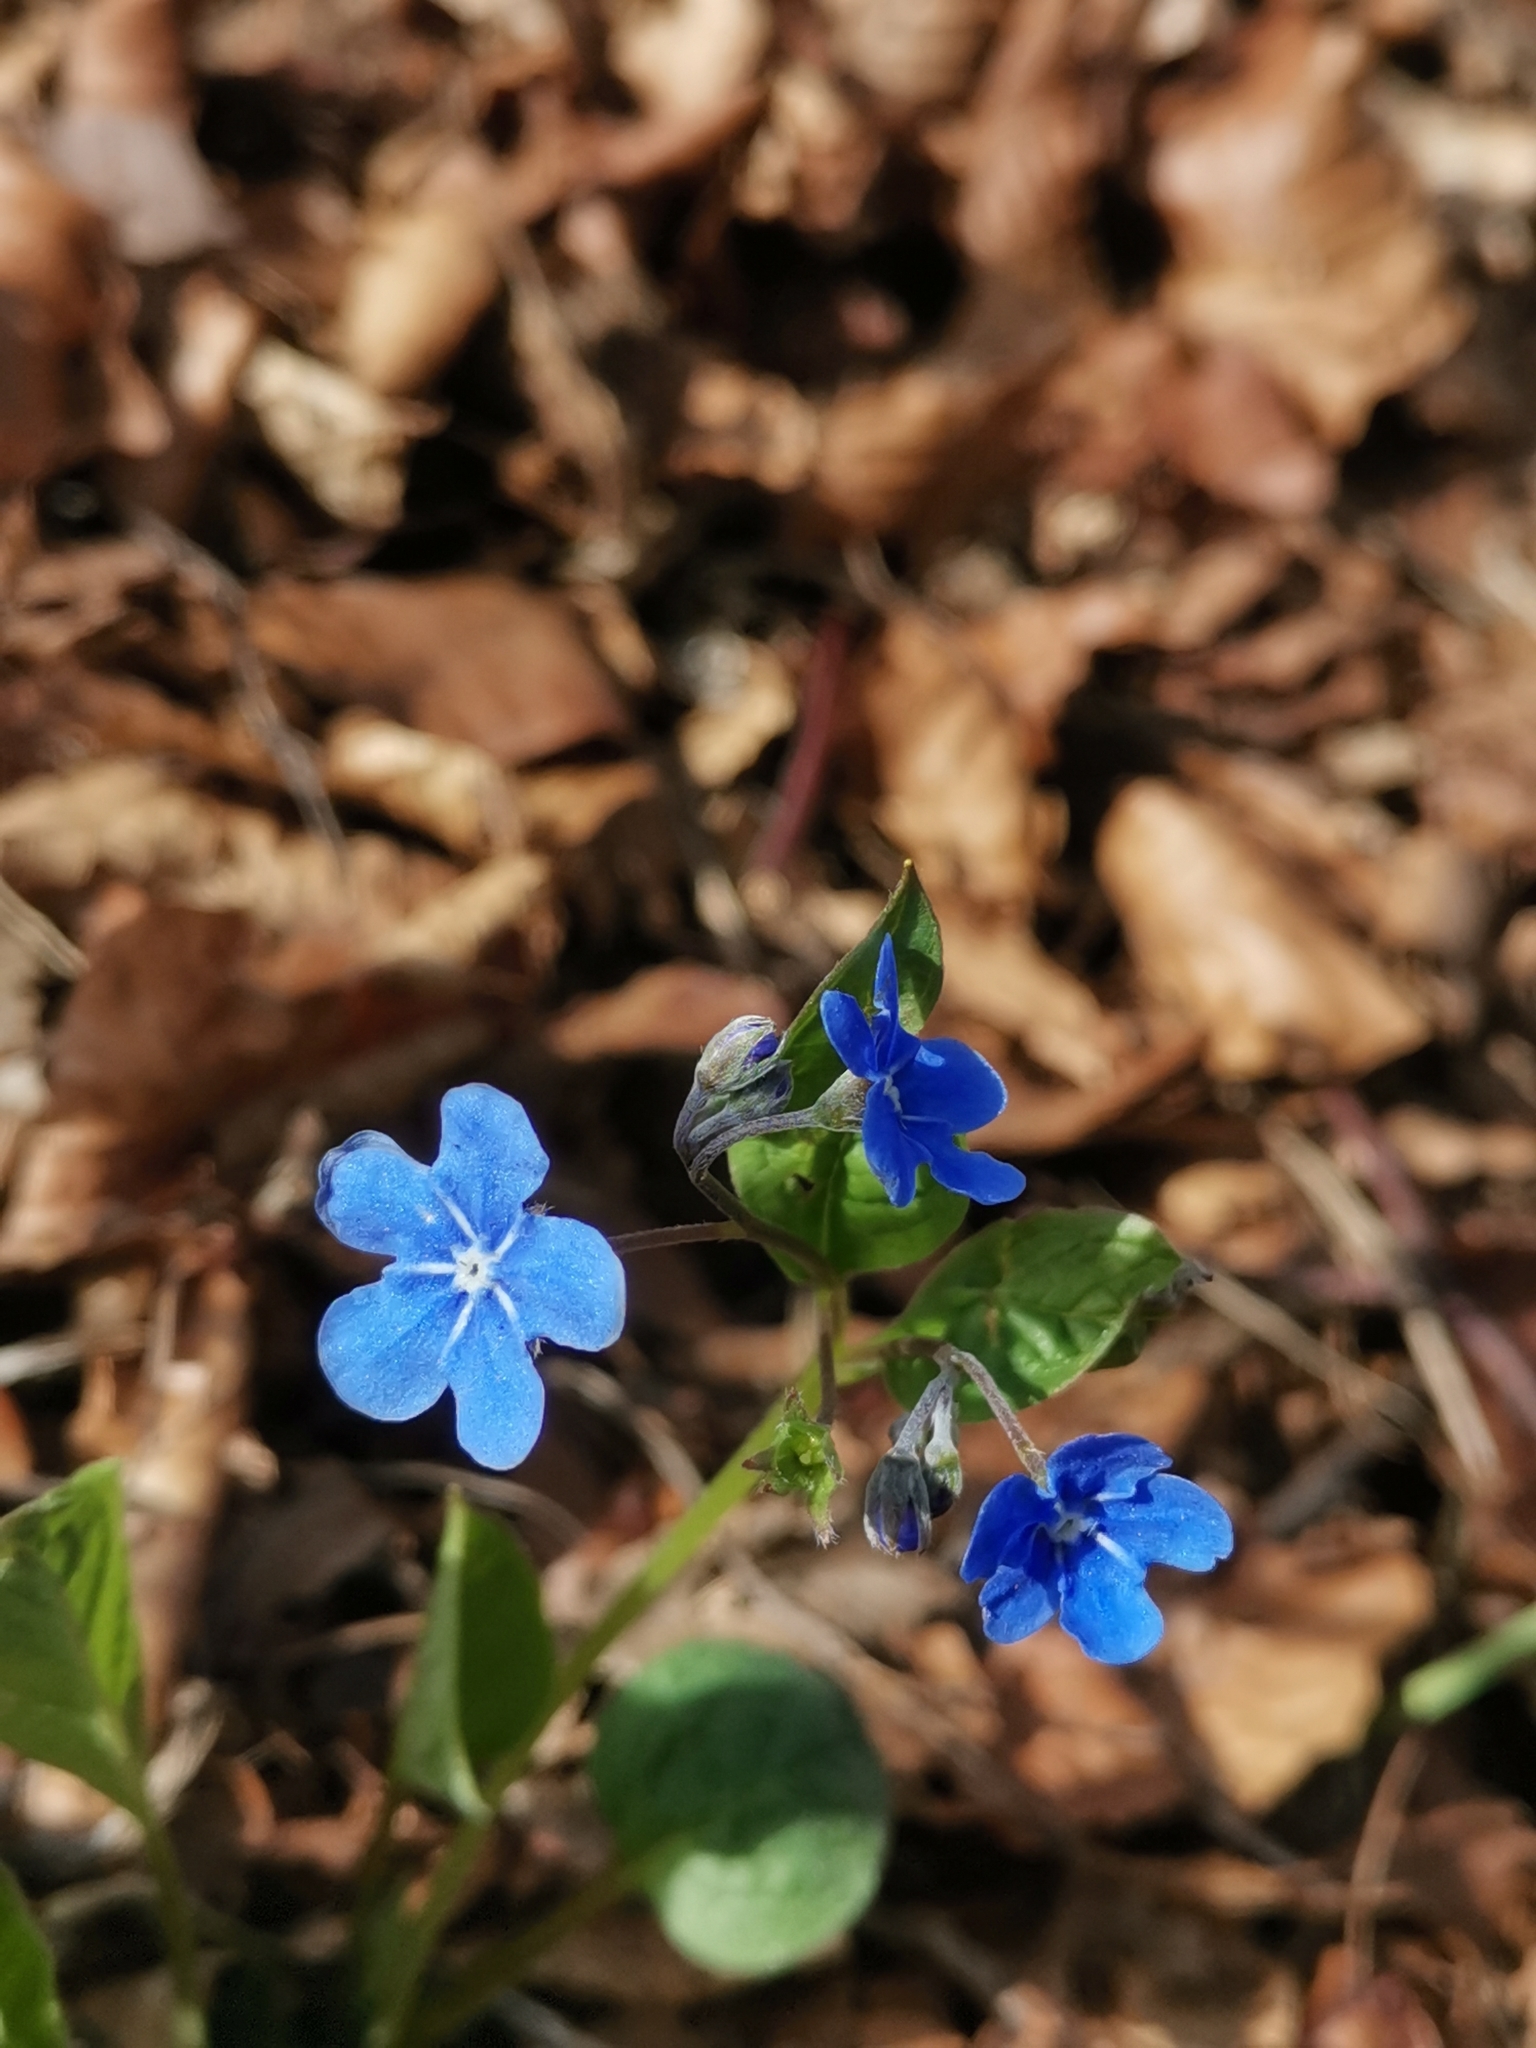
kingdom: Plantae
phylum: Tracheophyta
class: Magnoliopsida
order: Boraginales
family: Boraginaceae
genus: Omphalodes
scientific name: Omphalodes verna
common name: Blue-eyed-mary
